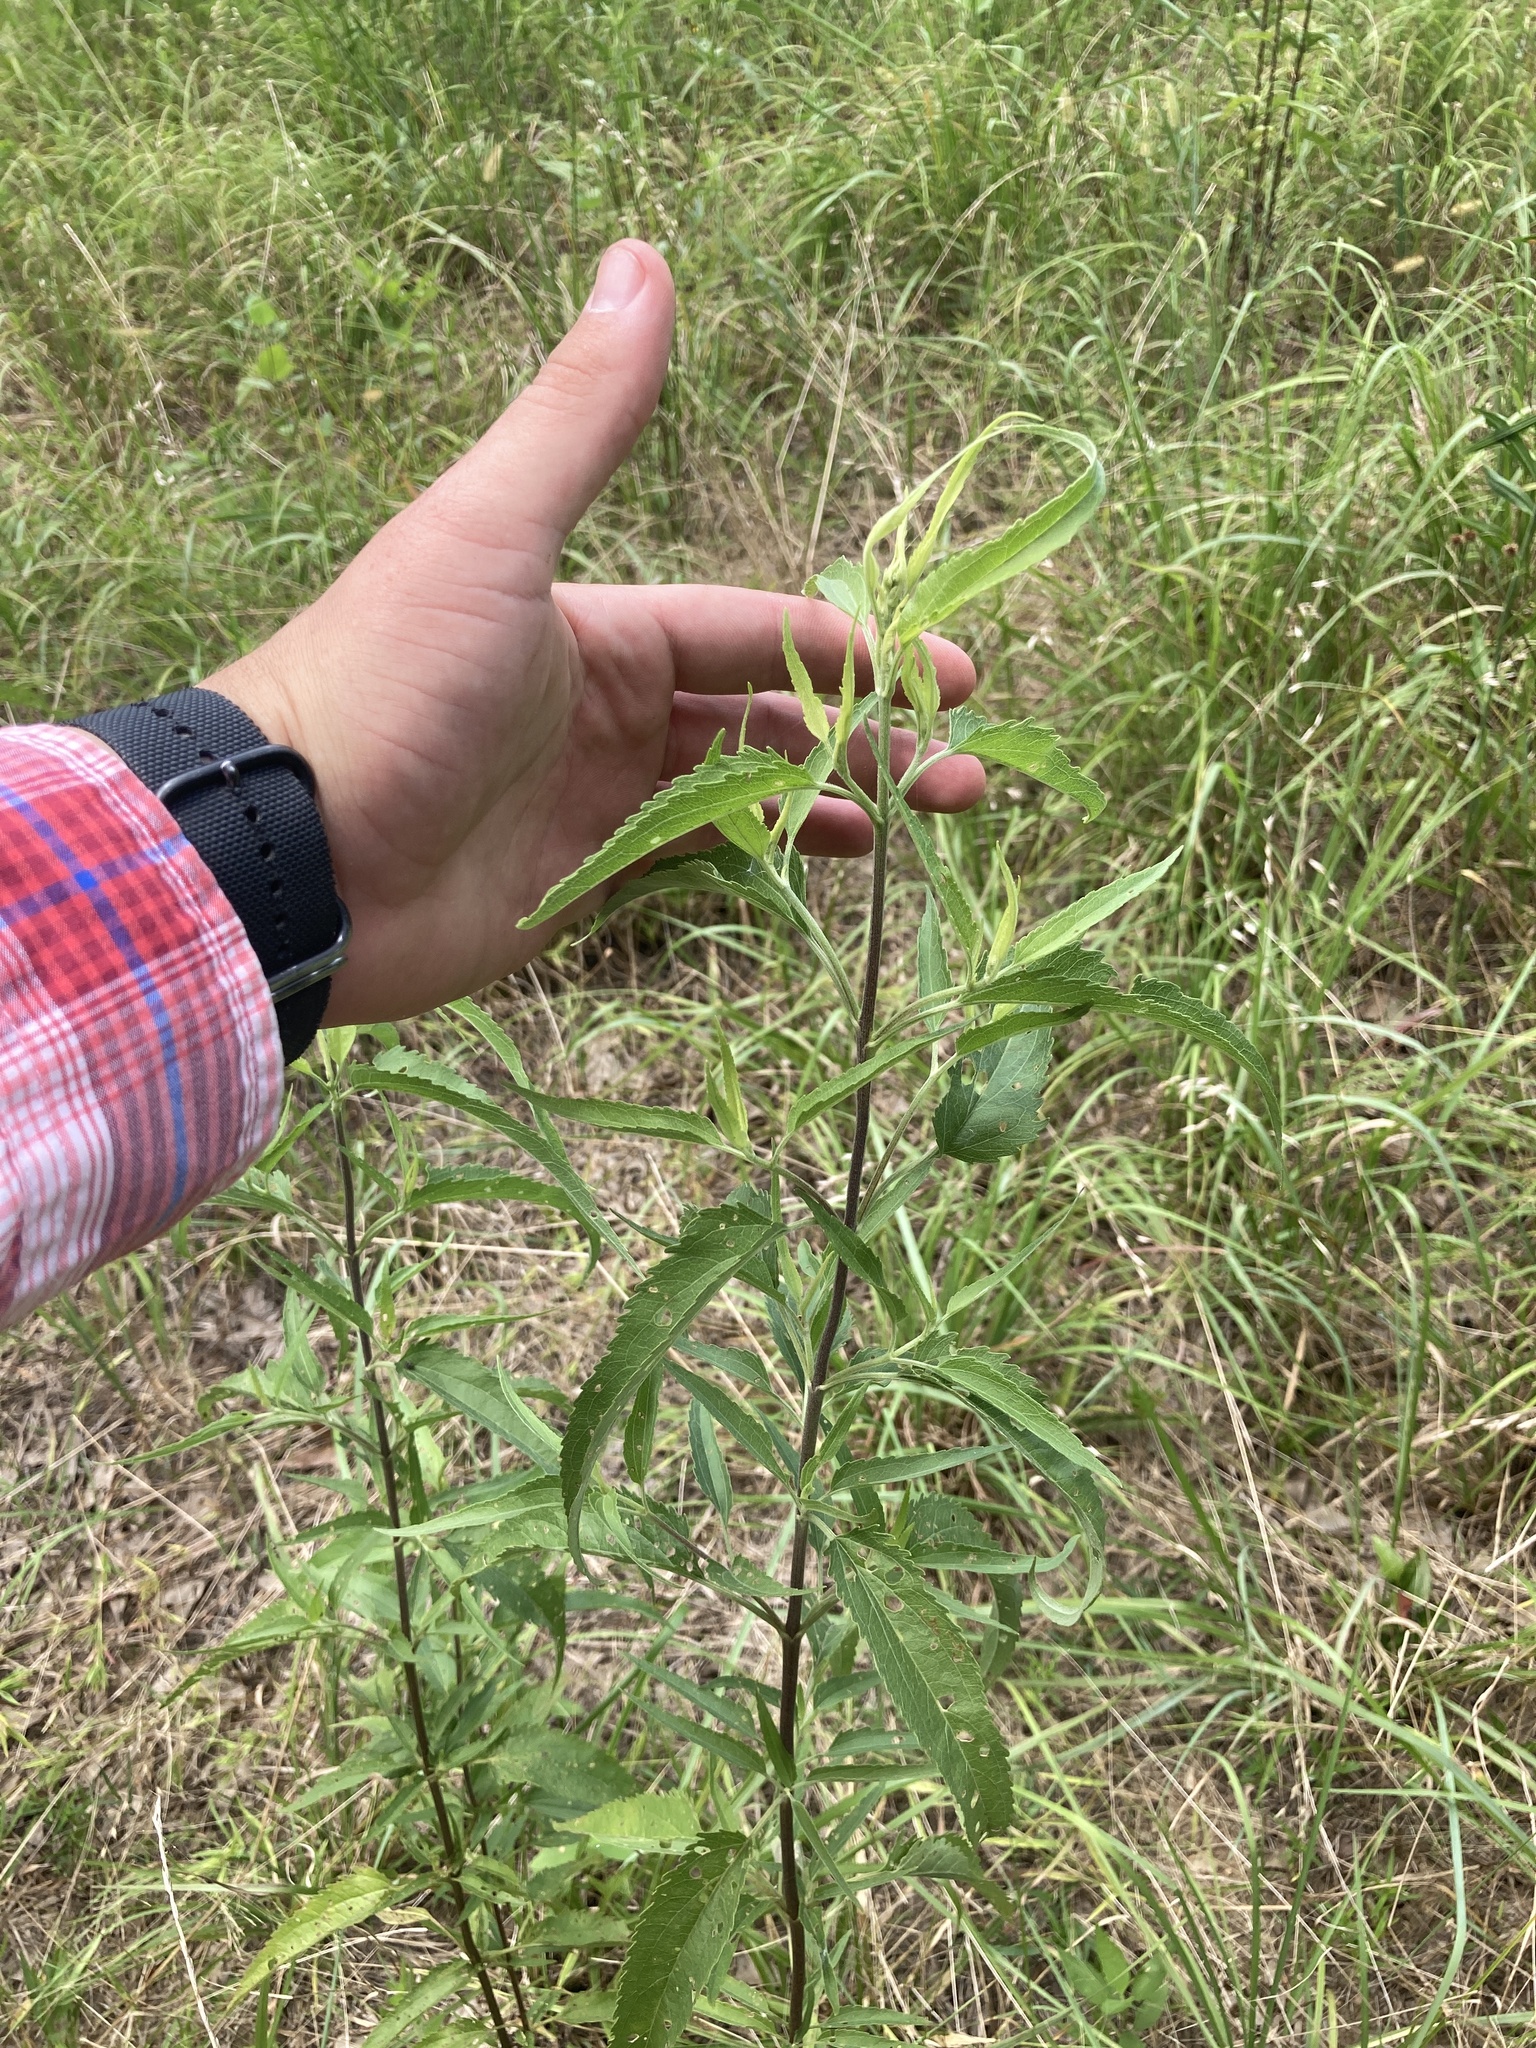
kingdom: Plantae
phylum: Tracheophyta
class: Magnoliopsida
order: Asterales
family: Asteraceae
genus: Eupatorium
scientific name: Eupatorium serotinum
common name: Late boneset
